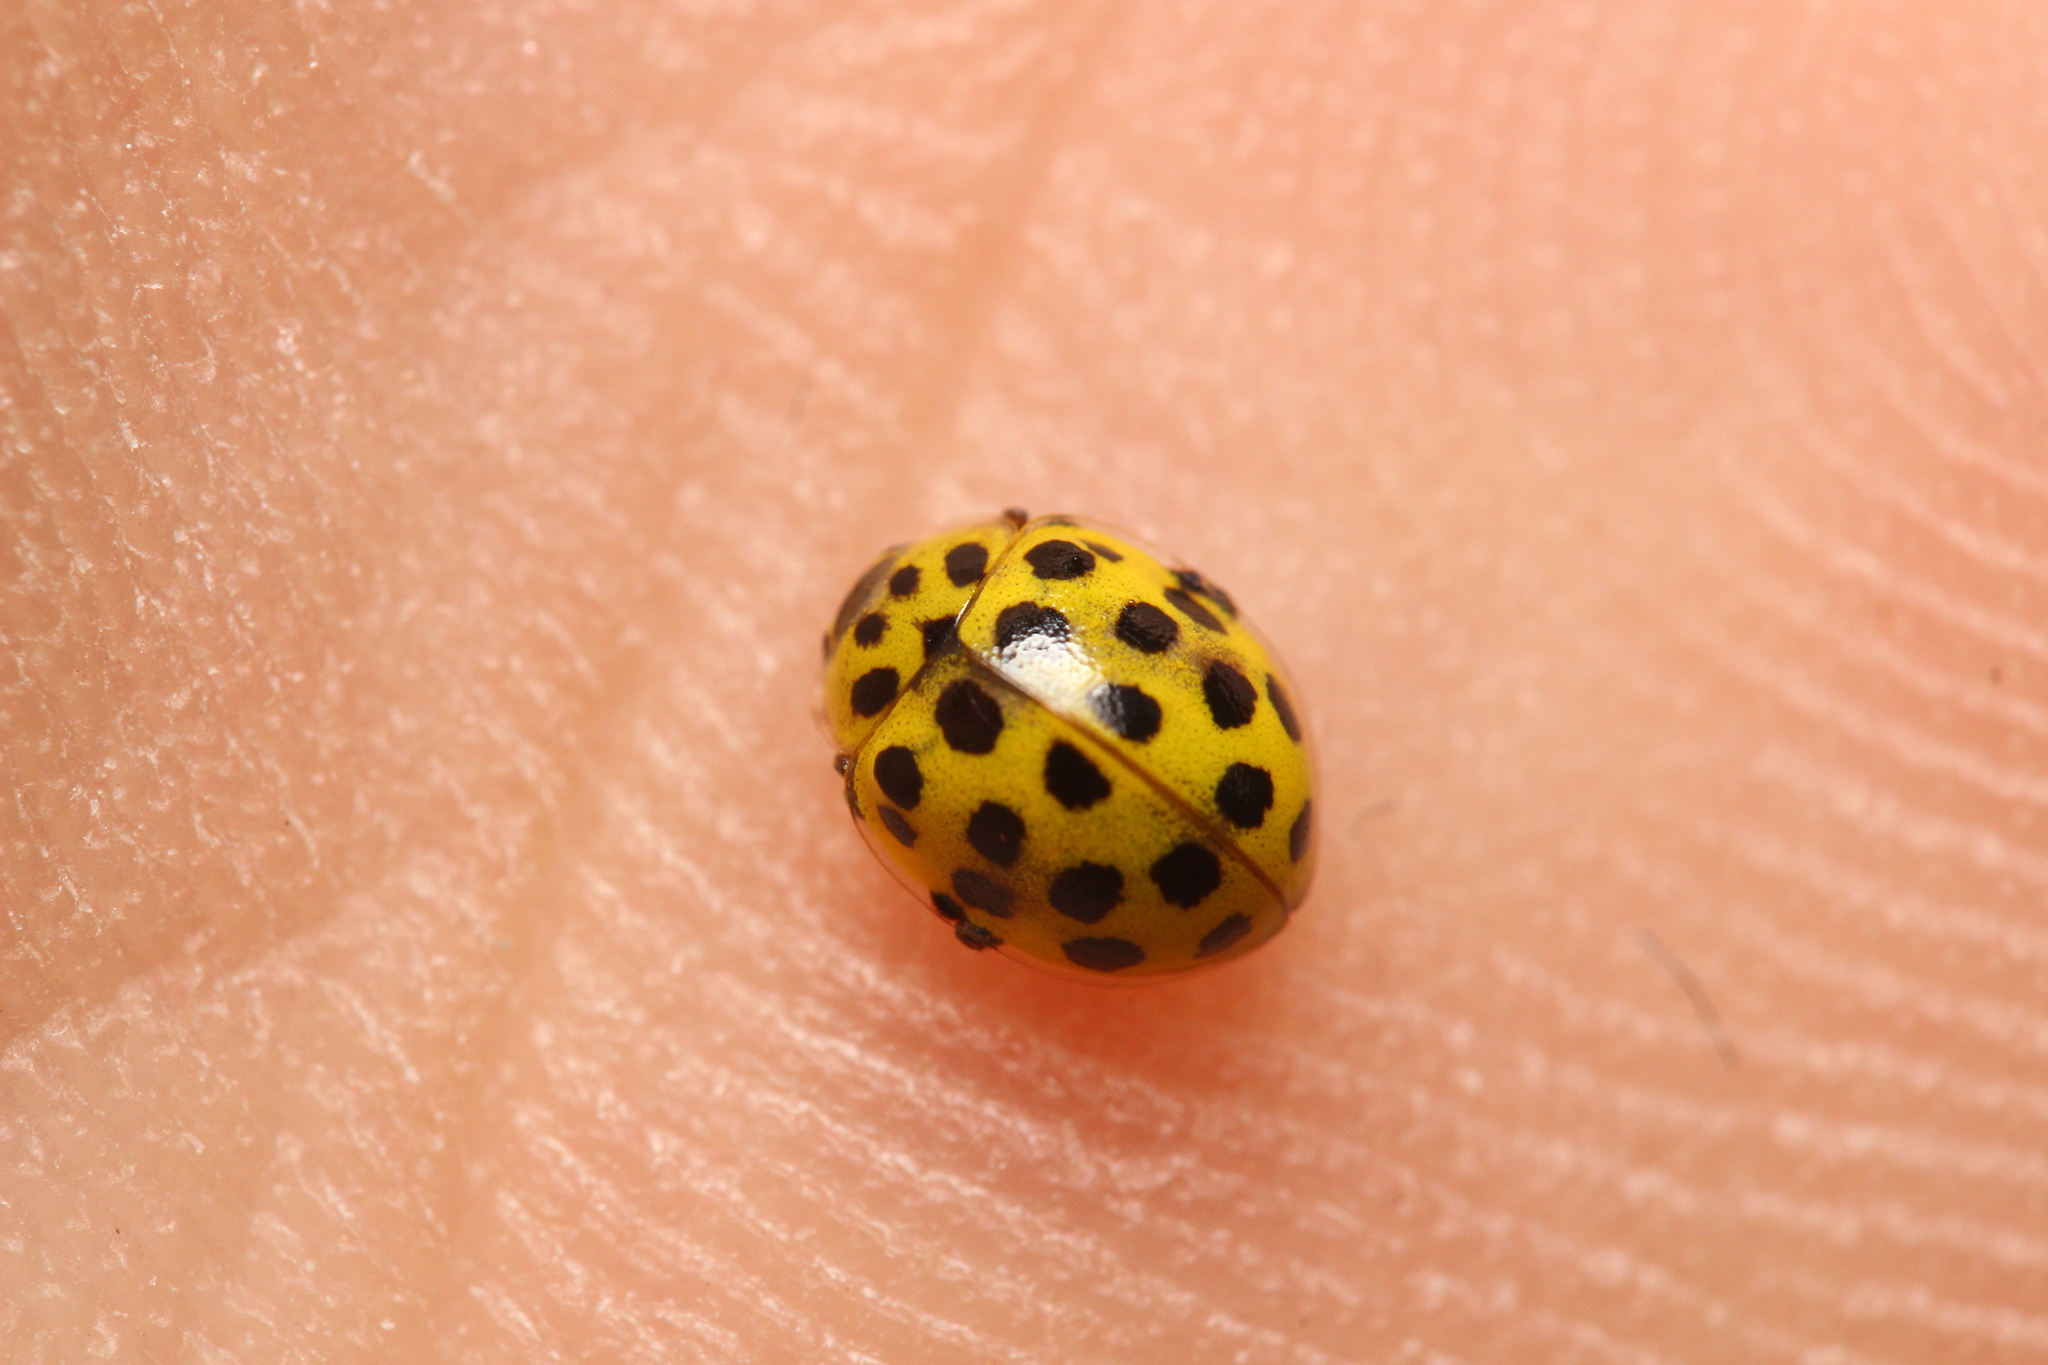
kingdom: Animalia
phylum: Arthropoda
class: Insecta
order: Coleoptera
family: Coccinellidae
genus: Psyllobora
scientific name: Psyllobora vigintiduopunctata
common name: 22-spot ladybird
